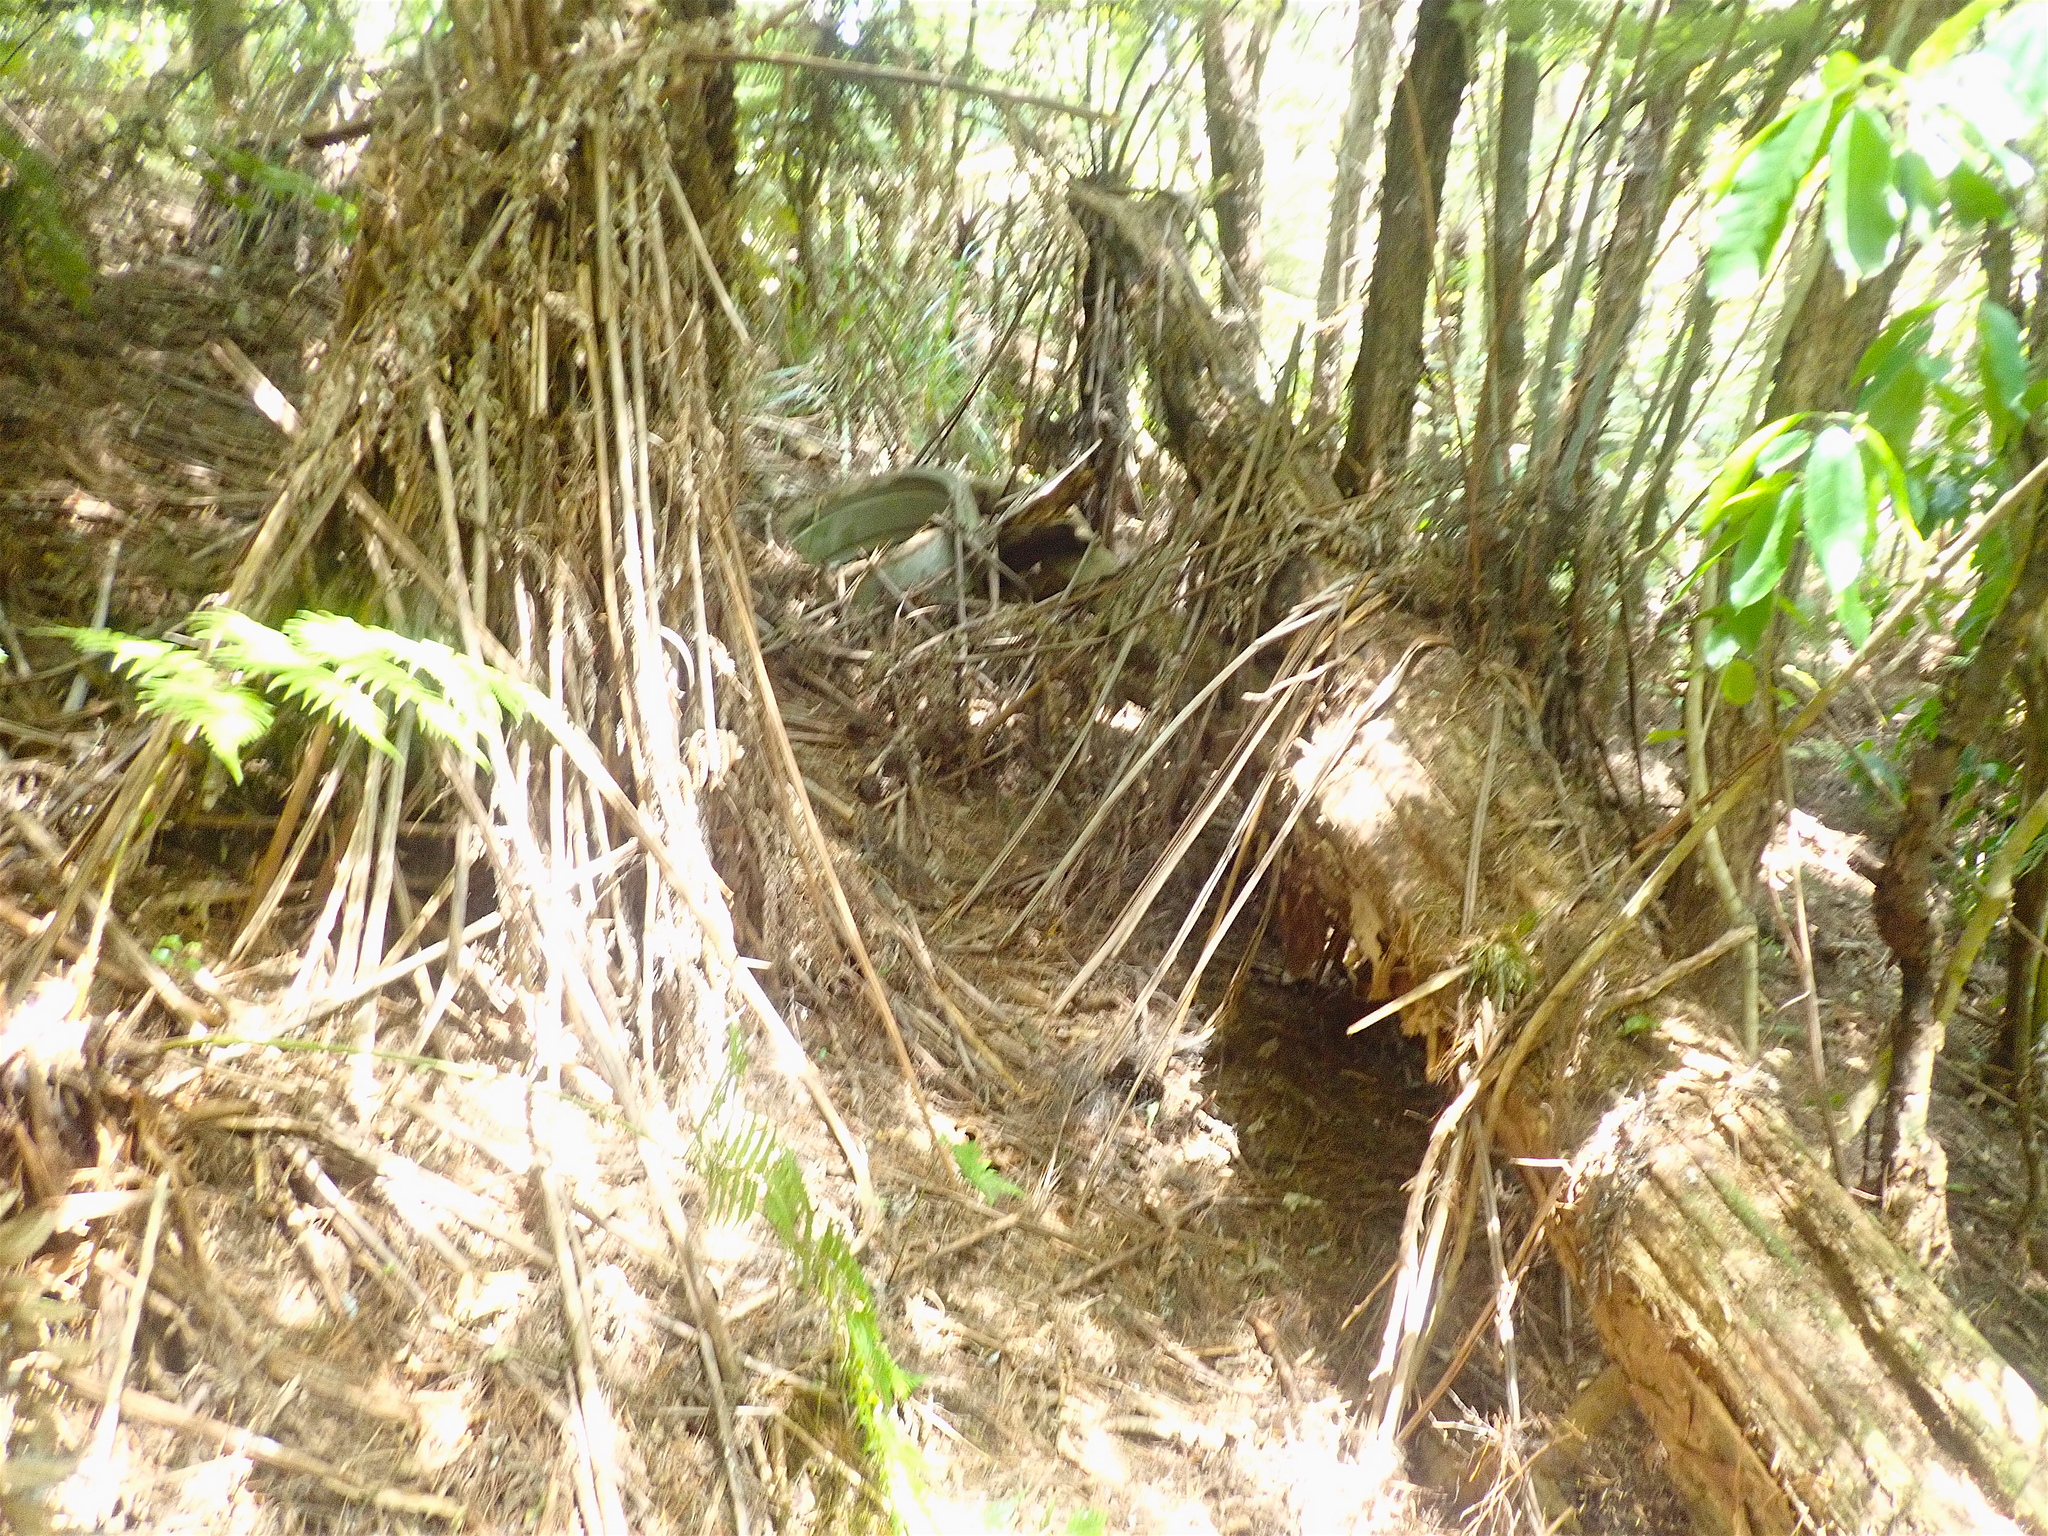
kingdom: Plantae
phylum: Tracheophyta
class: Pinopsida
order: Pinales
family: Pinaceae
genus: Pinus
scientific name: Pinus radiata
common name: Monterey pine
